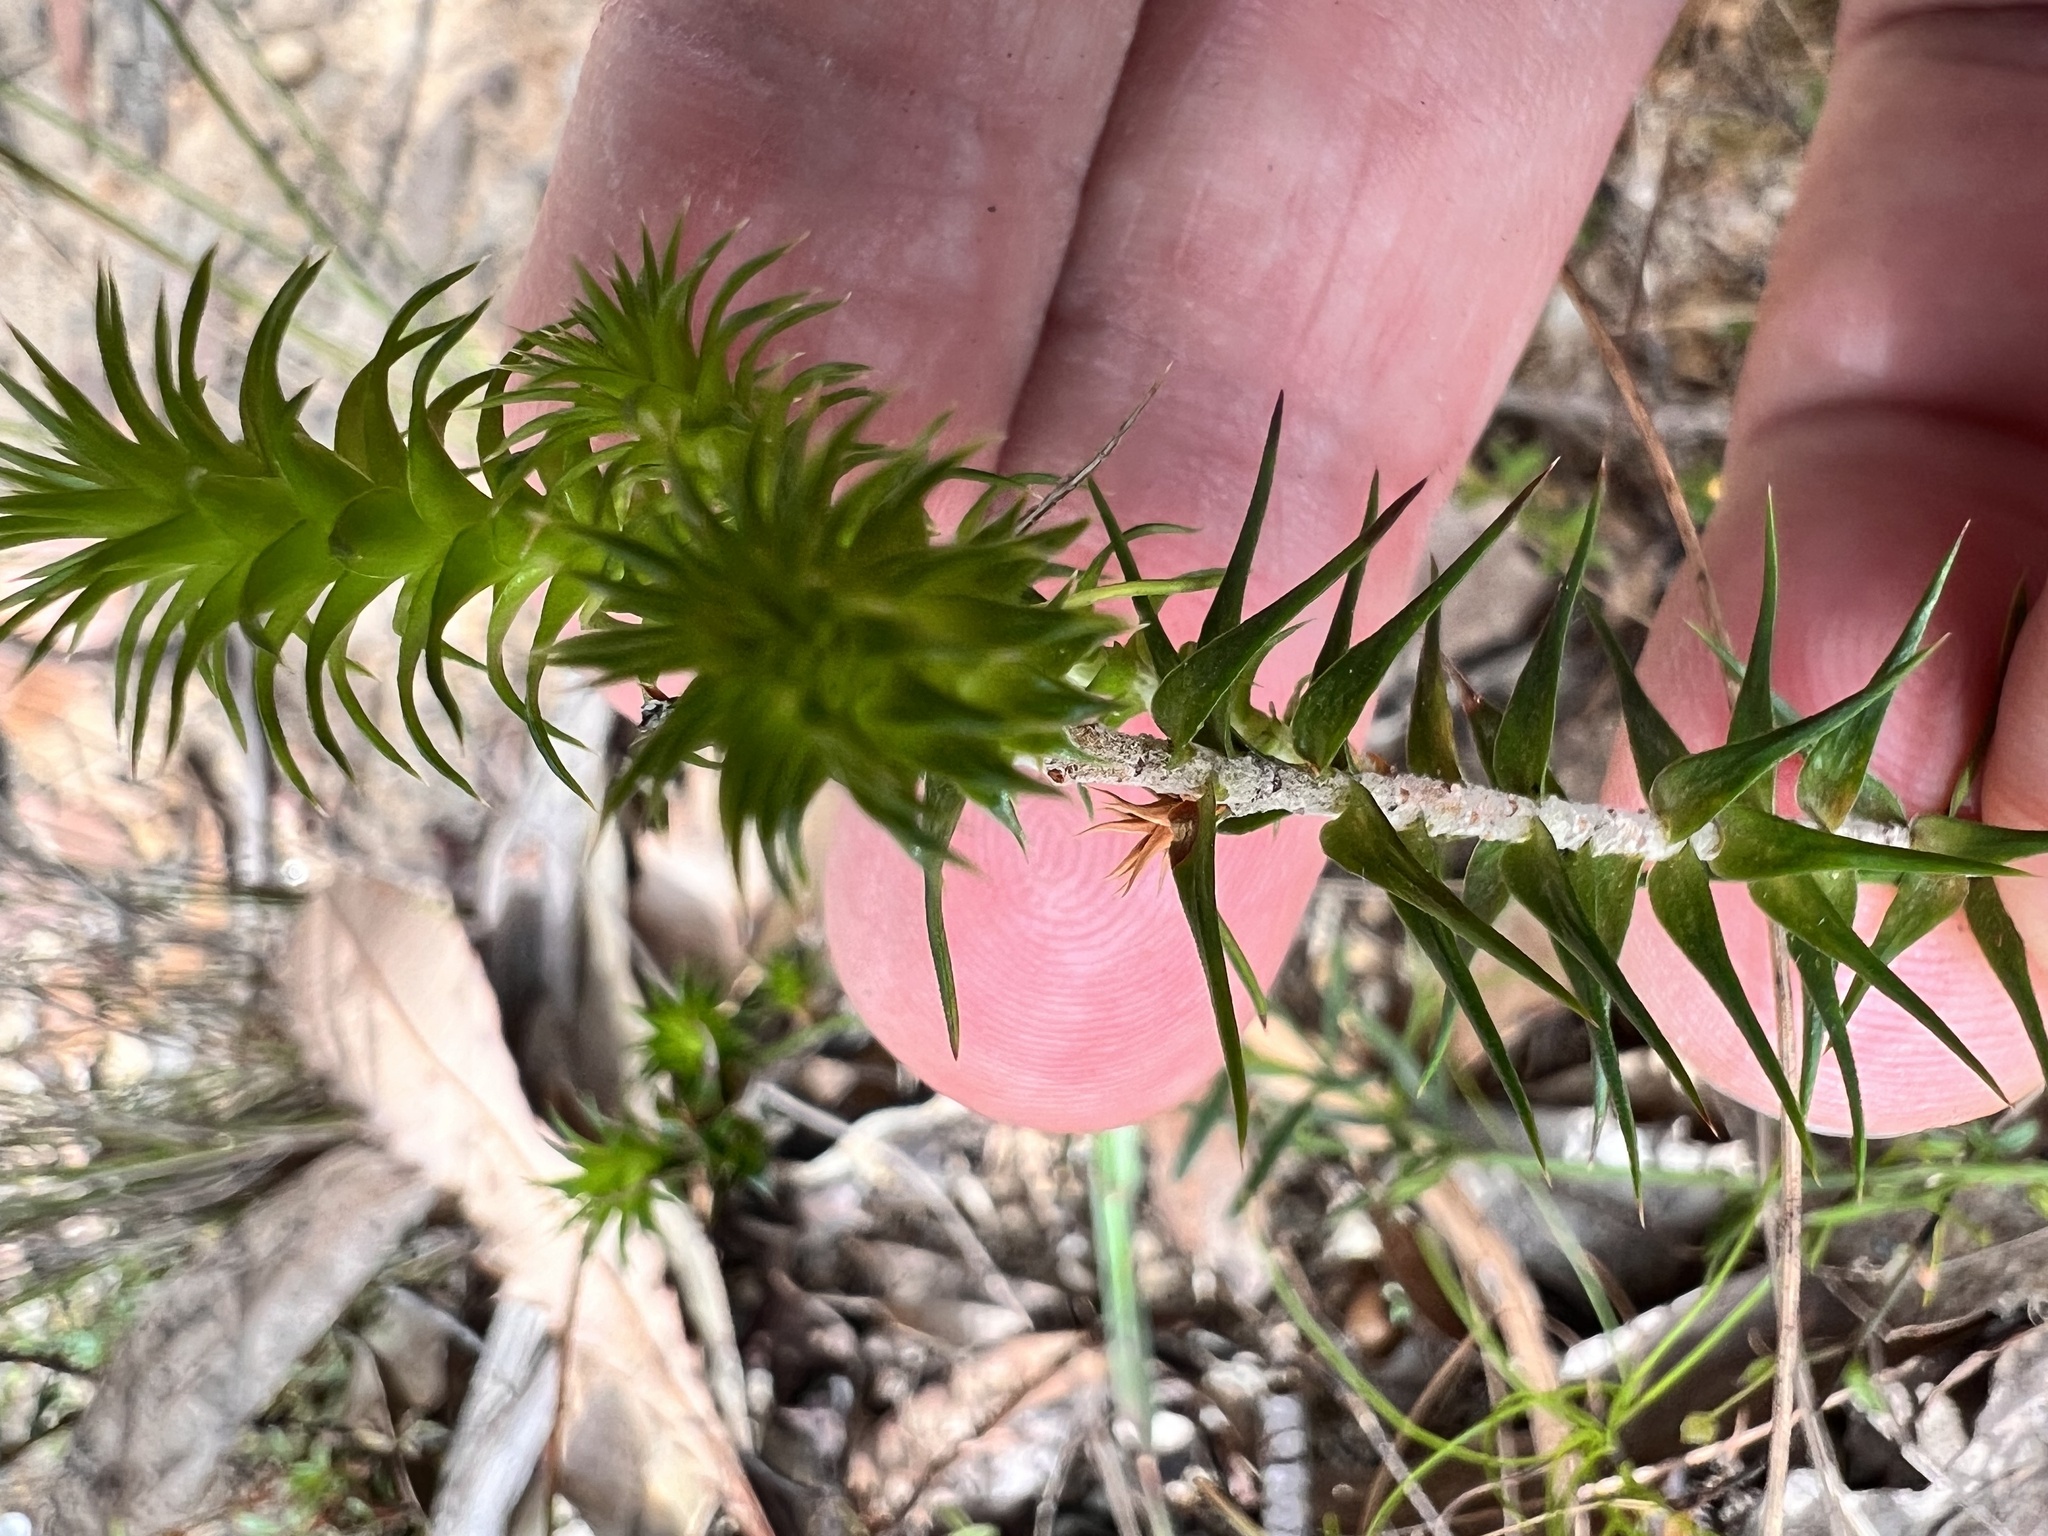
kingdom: Plantae
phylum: Tracheophyta
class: Magnoliopsida
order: Ericales
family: Ericaceae
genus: Woollsia
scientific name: Woollsia pungens
